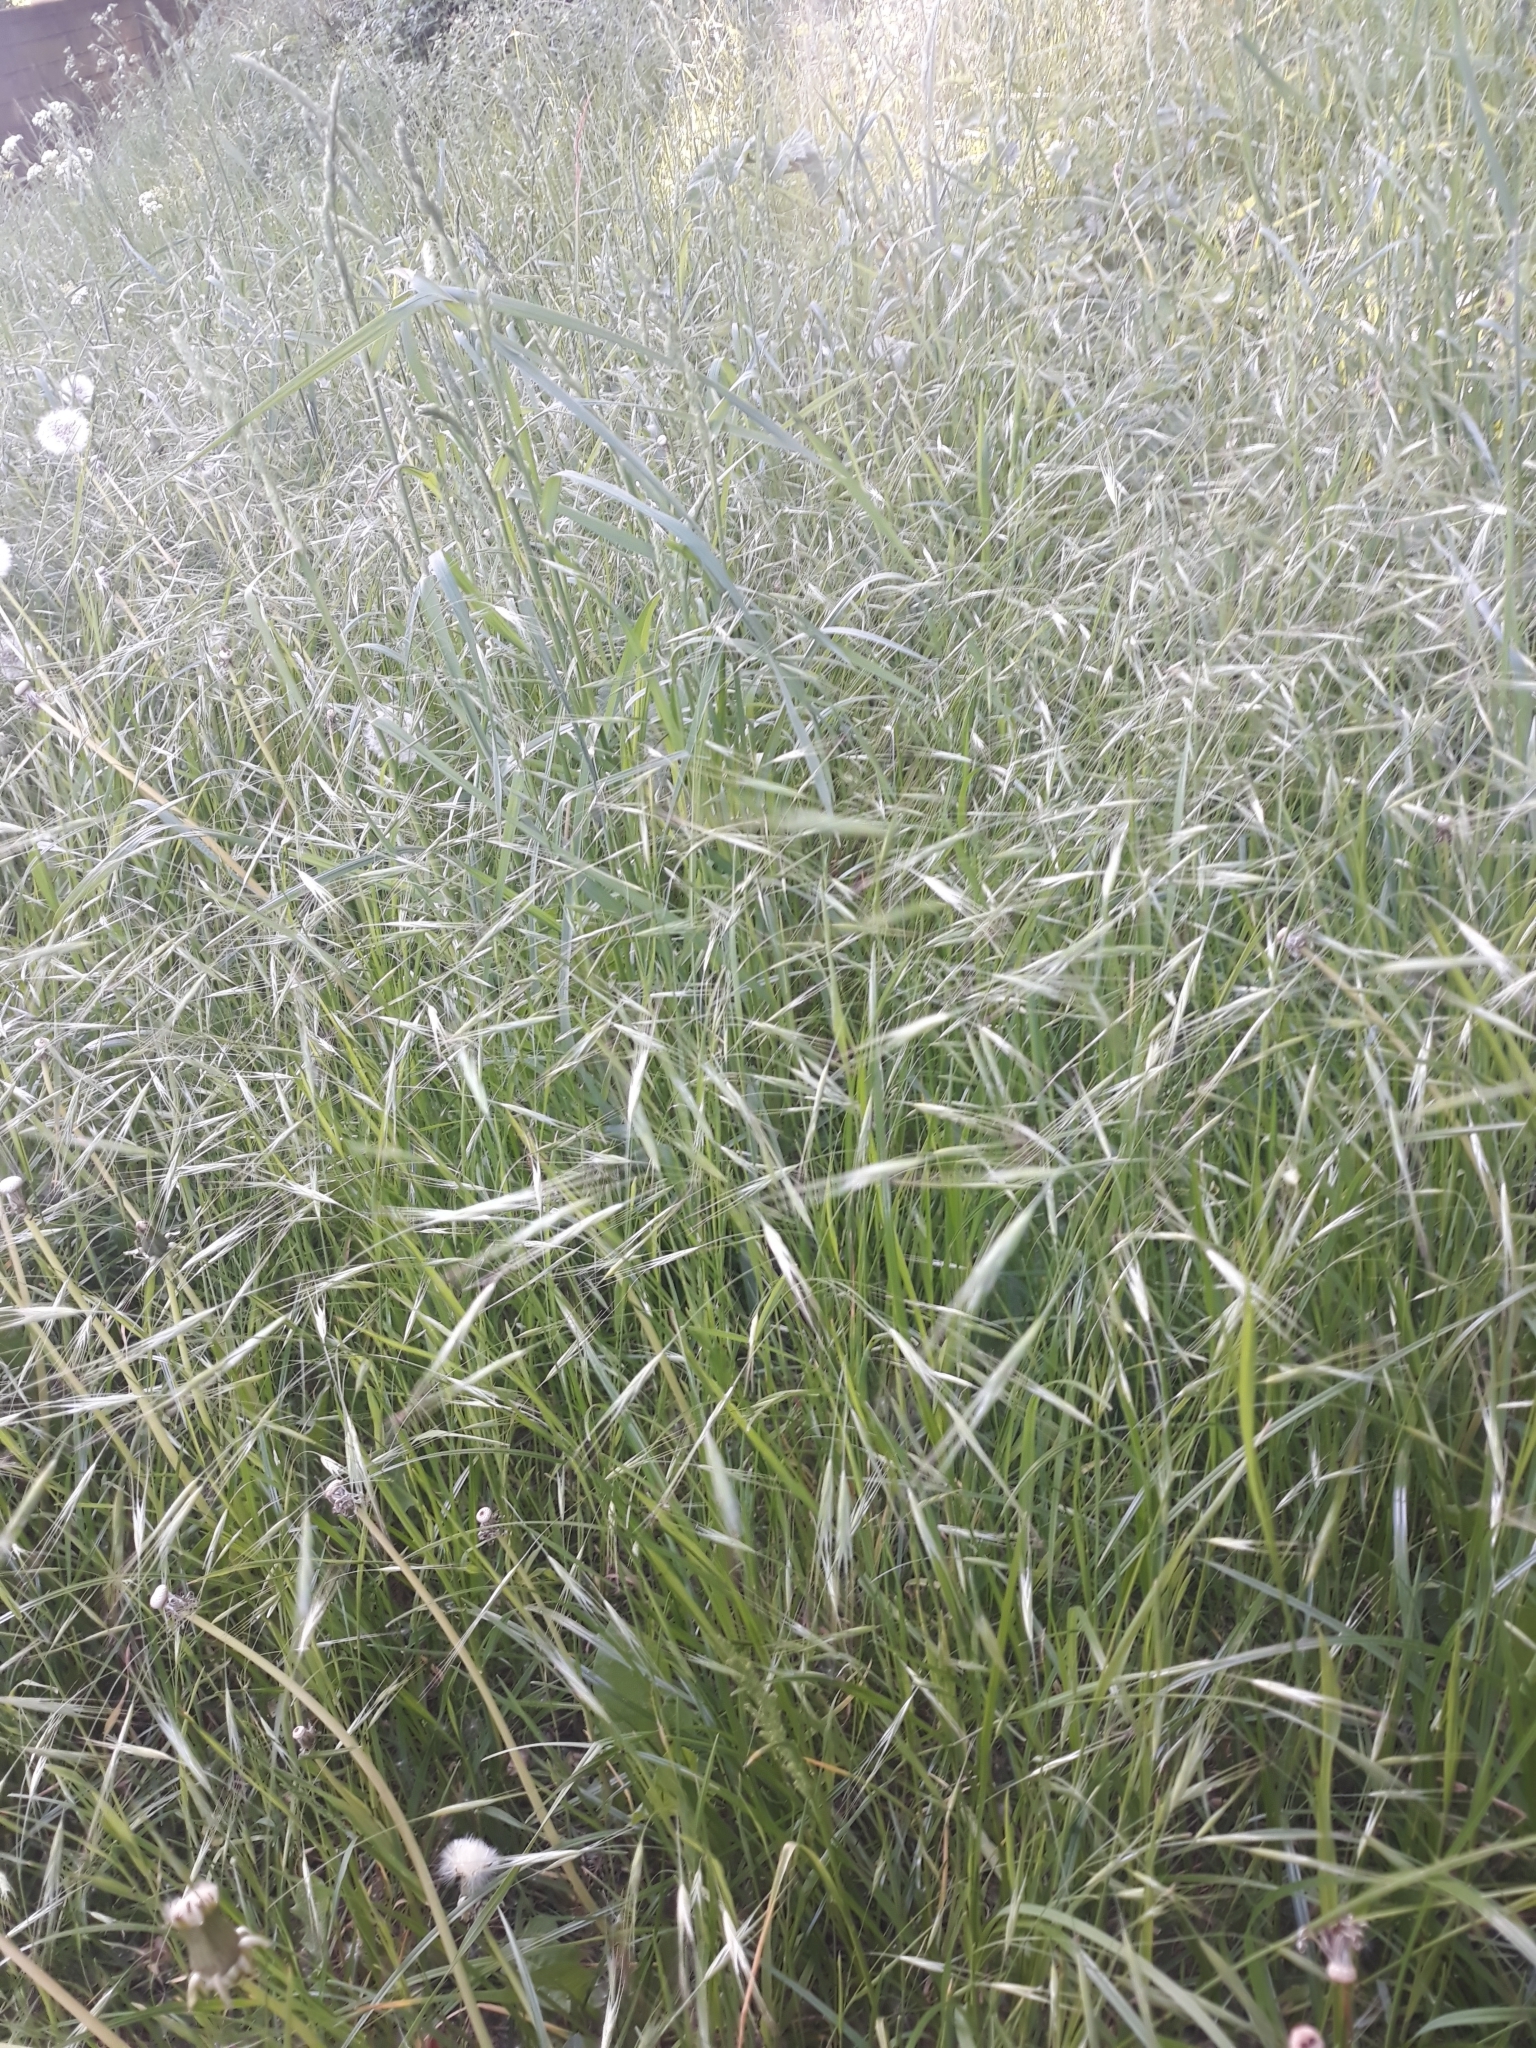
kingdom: Plantae
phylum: Tracheophyta
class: Liliopsida
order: Poales
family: Poaceae
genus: Bromus
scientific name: Bromus sterilis
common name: Poverty brome
